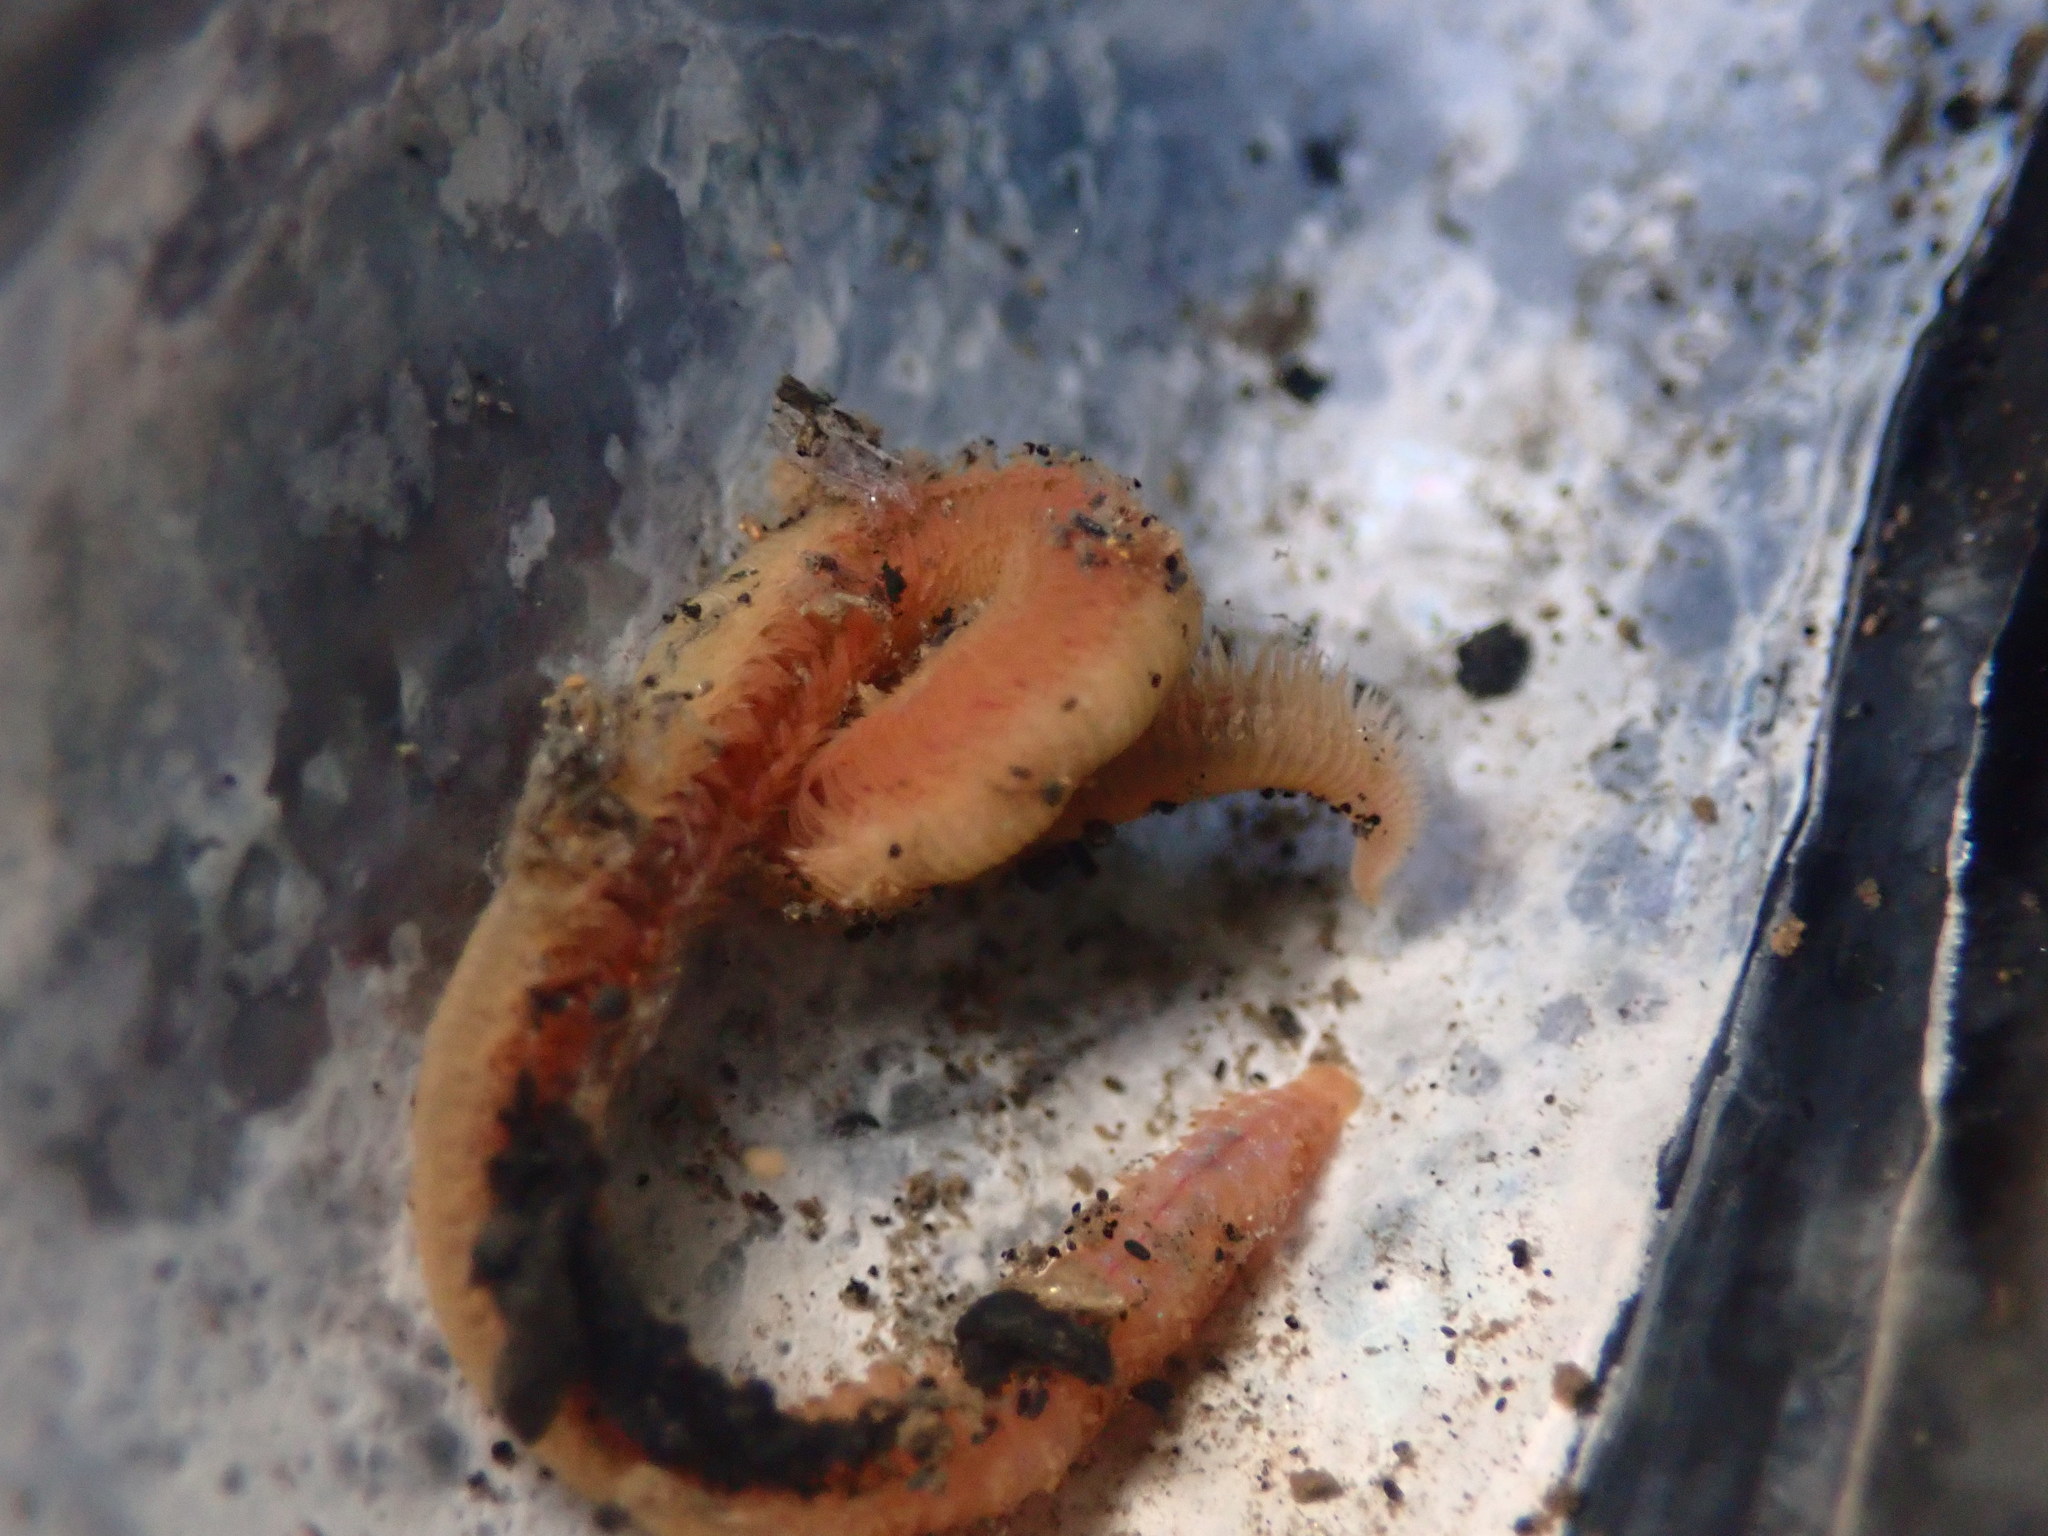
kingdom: Animalia
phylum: Annelida
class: Polychaeta
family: Orbiniidae
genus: Naineris
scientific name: Naineris dendritica
